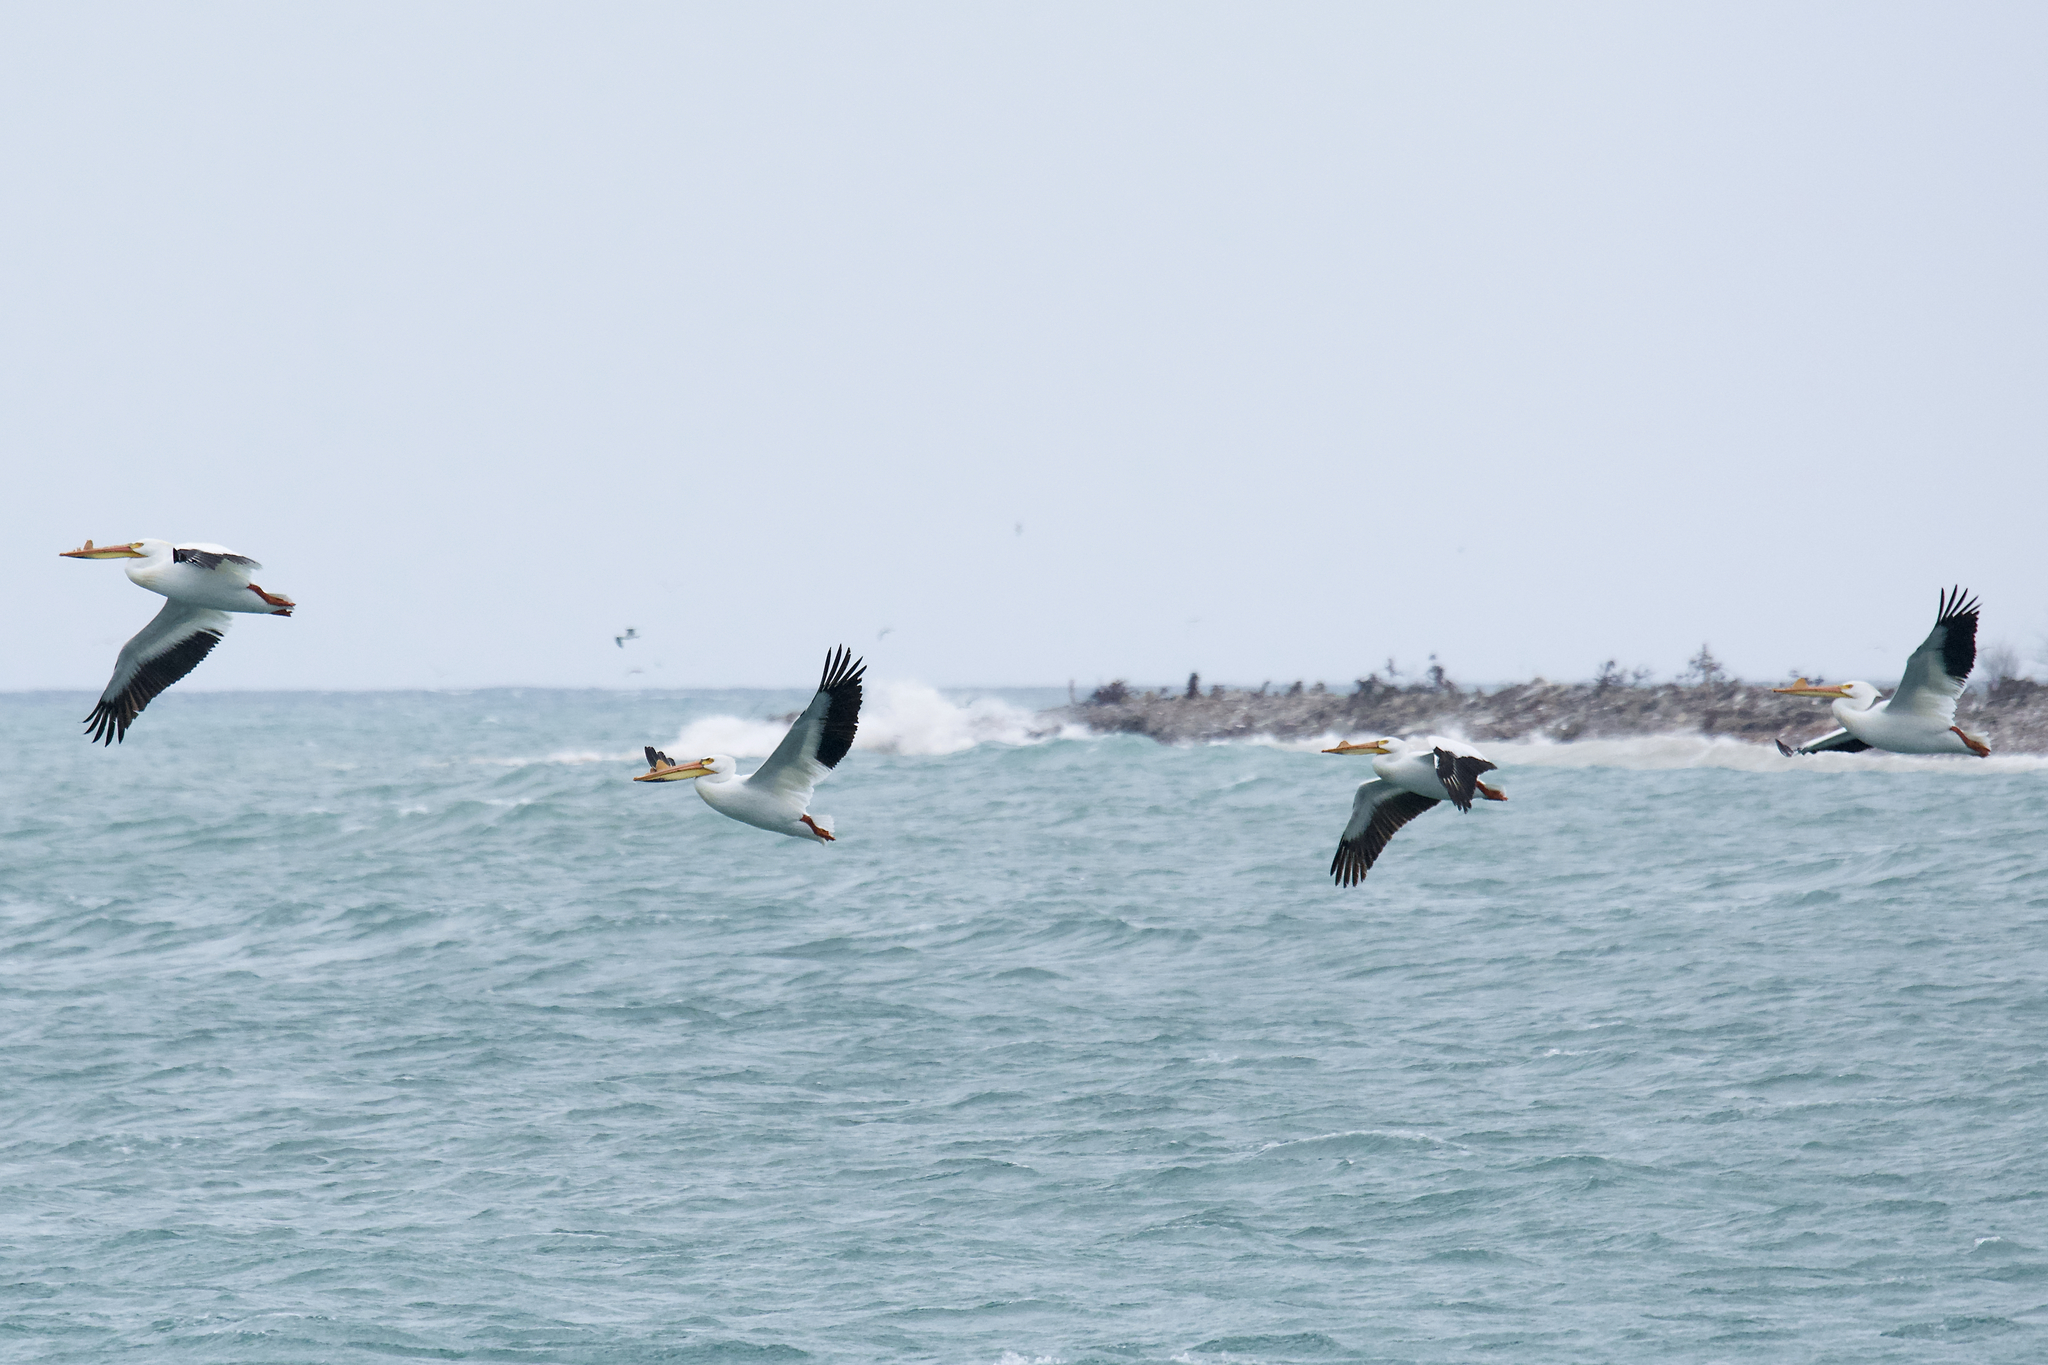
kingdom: Animalia
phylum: Chordata
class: Aves
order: Pelecaniformes
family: Pelecanidae
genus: Pelecanus
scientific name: Pelecanus erythrorhynchos
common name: American white pelican
